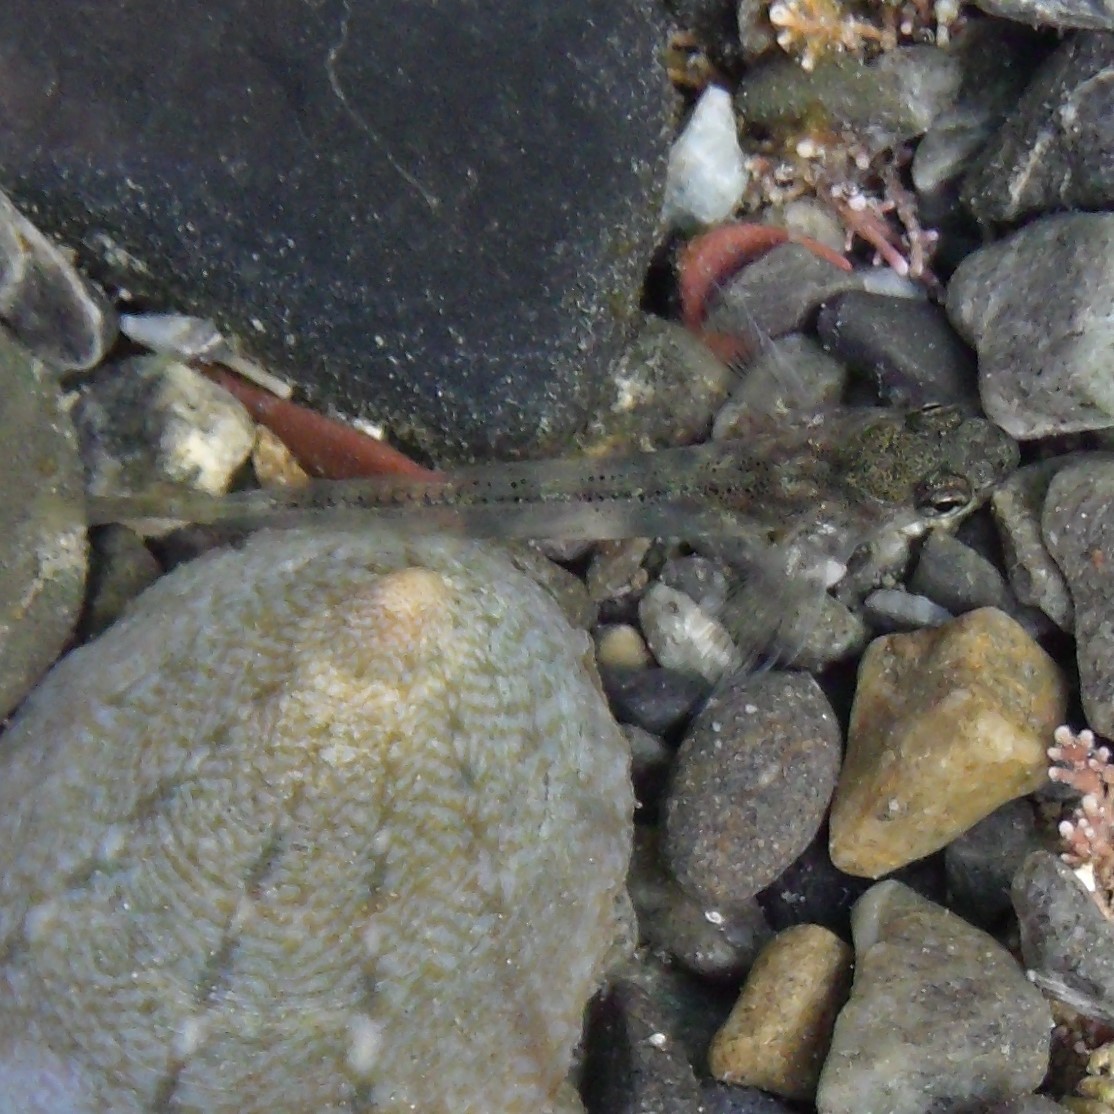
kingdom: Animalia
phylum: Chordata
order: Perciformes
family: Tripterygiidae
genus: Bellapiscis
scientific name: Bellapiscis medius
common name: Twister
